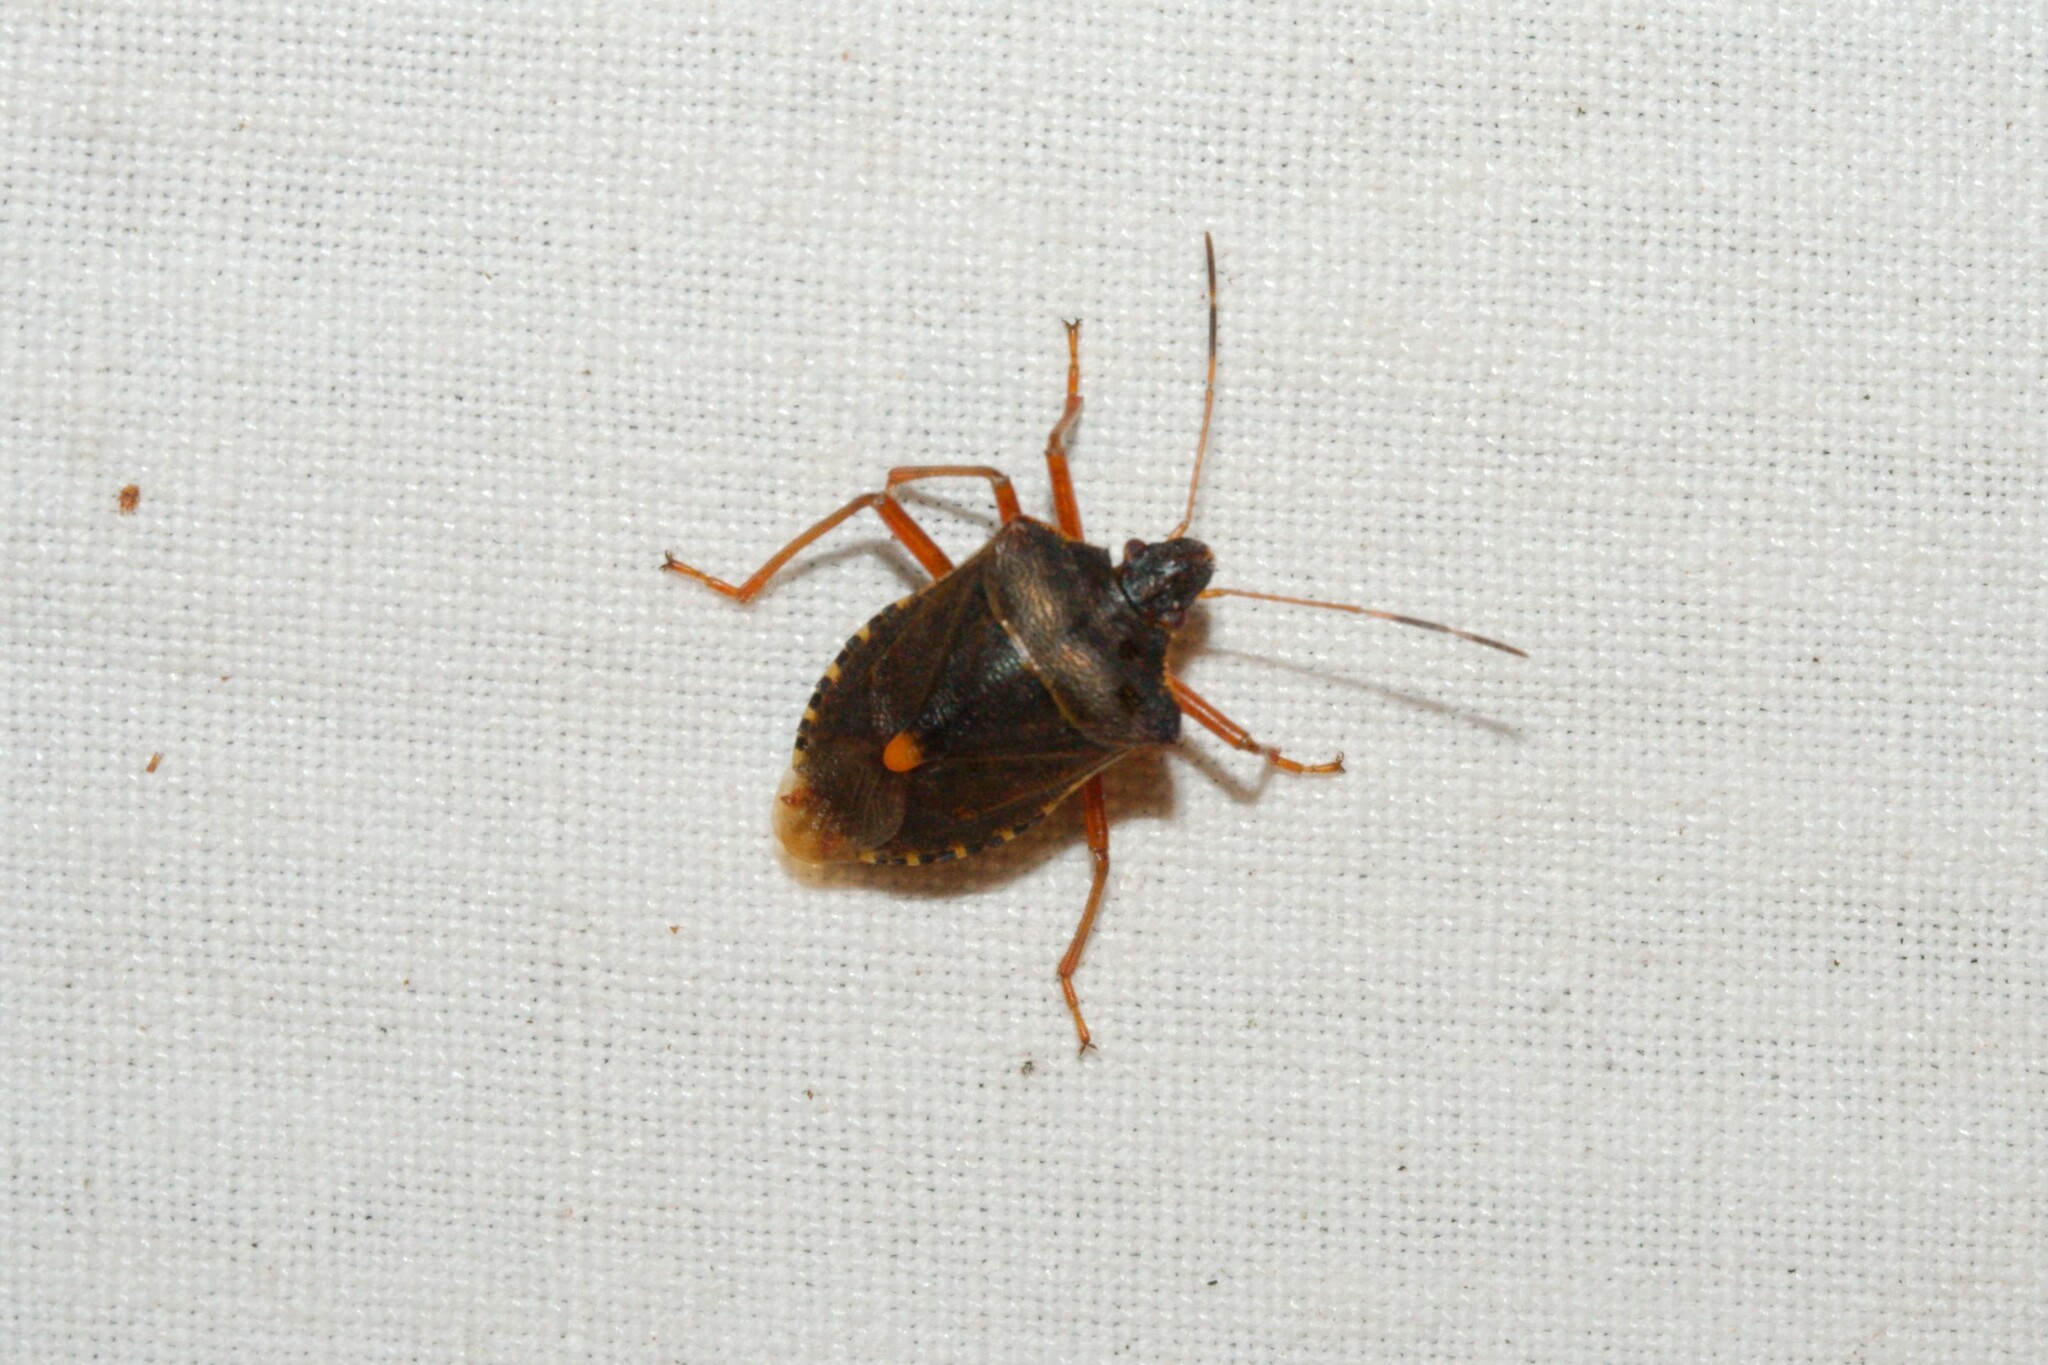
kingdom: Animalia
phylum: Arthropoda
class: Insecta
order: Hemiptera
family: Pentatomidae
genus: Pentatoma
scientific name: Pentatoma rufipes
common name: Forest bug
